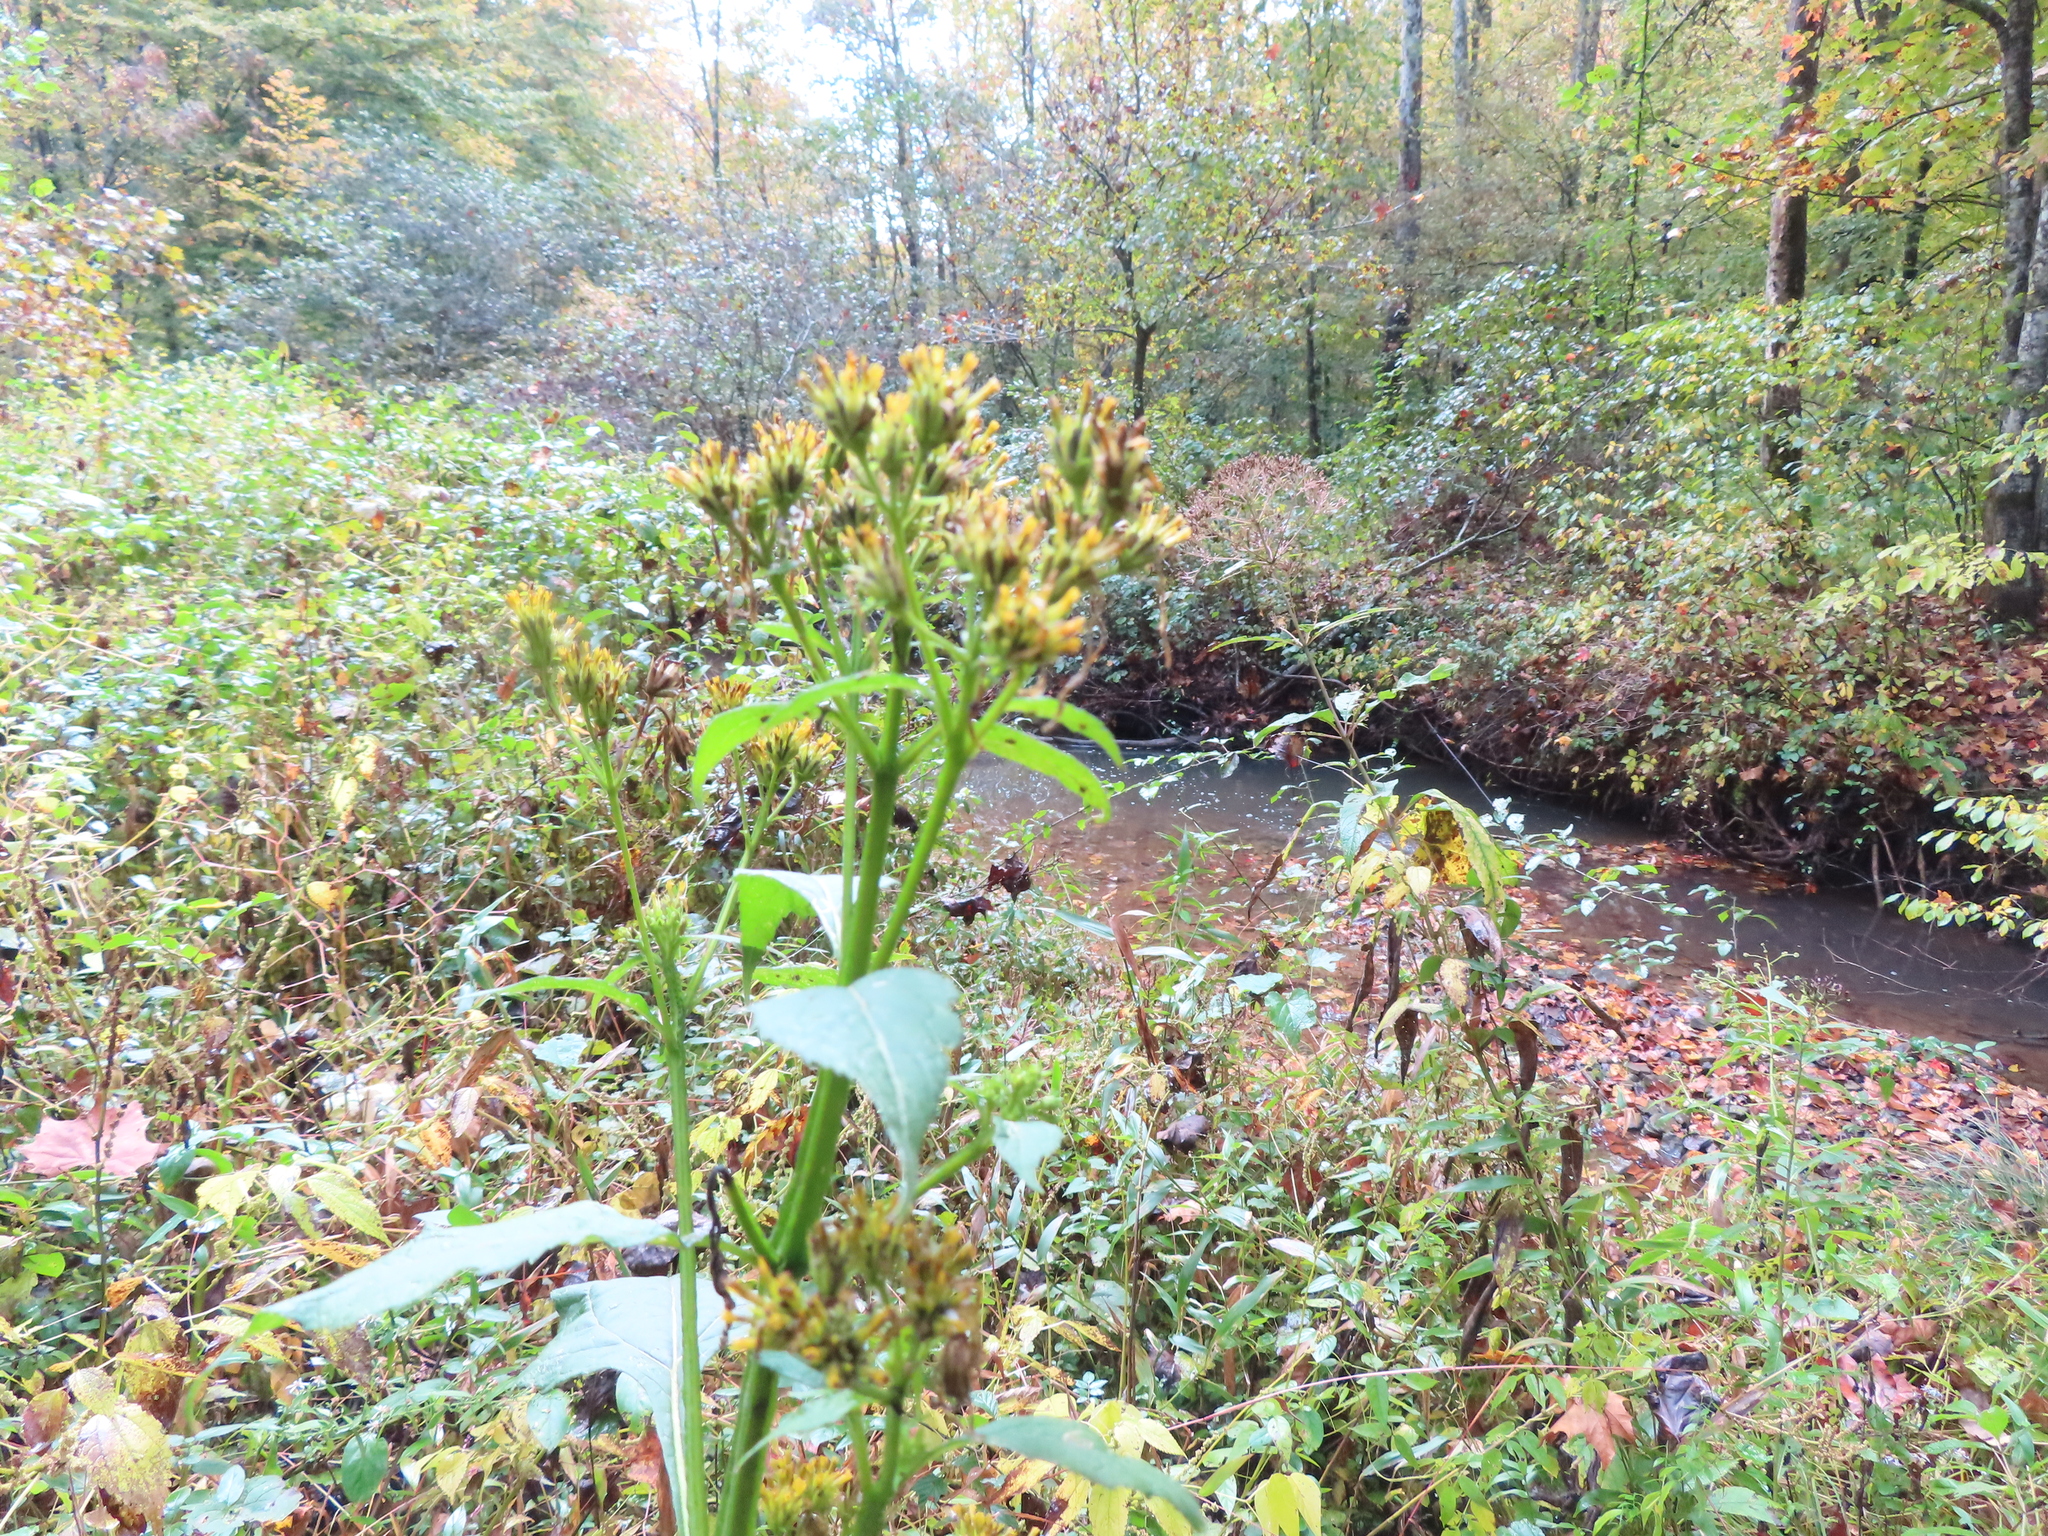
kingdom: Plantae
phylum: Tracheophyta
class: Magnoliopsida
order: Asterales
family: Asteraceae
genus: Verbesina
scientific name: Verbesina occidentalis
